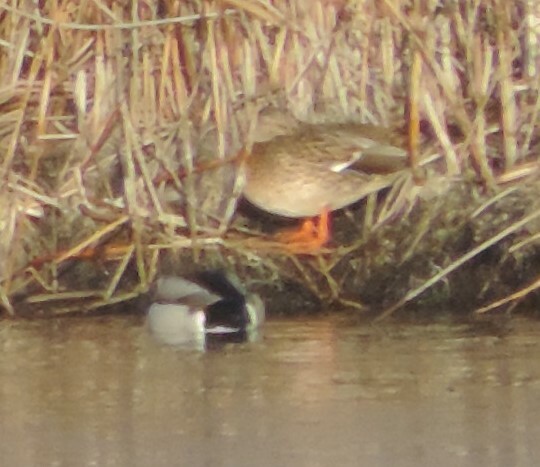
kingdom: Animalia
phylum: Chordata
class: Aves
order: Anseriformes
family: Anatidae
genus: Anas
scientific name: Anas platyrhynchos
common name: Mallard
